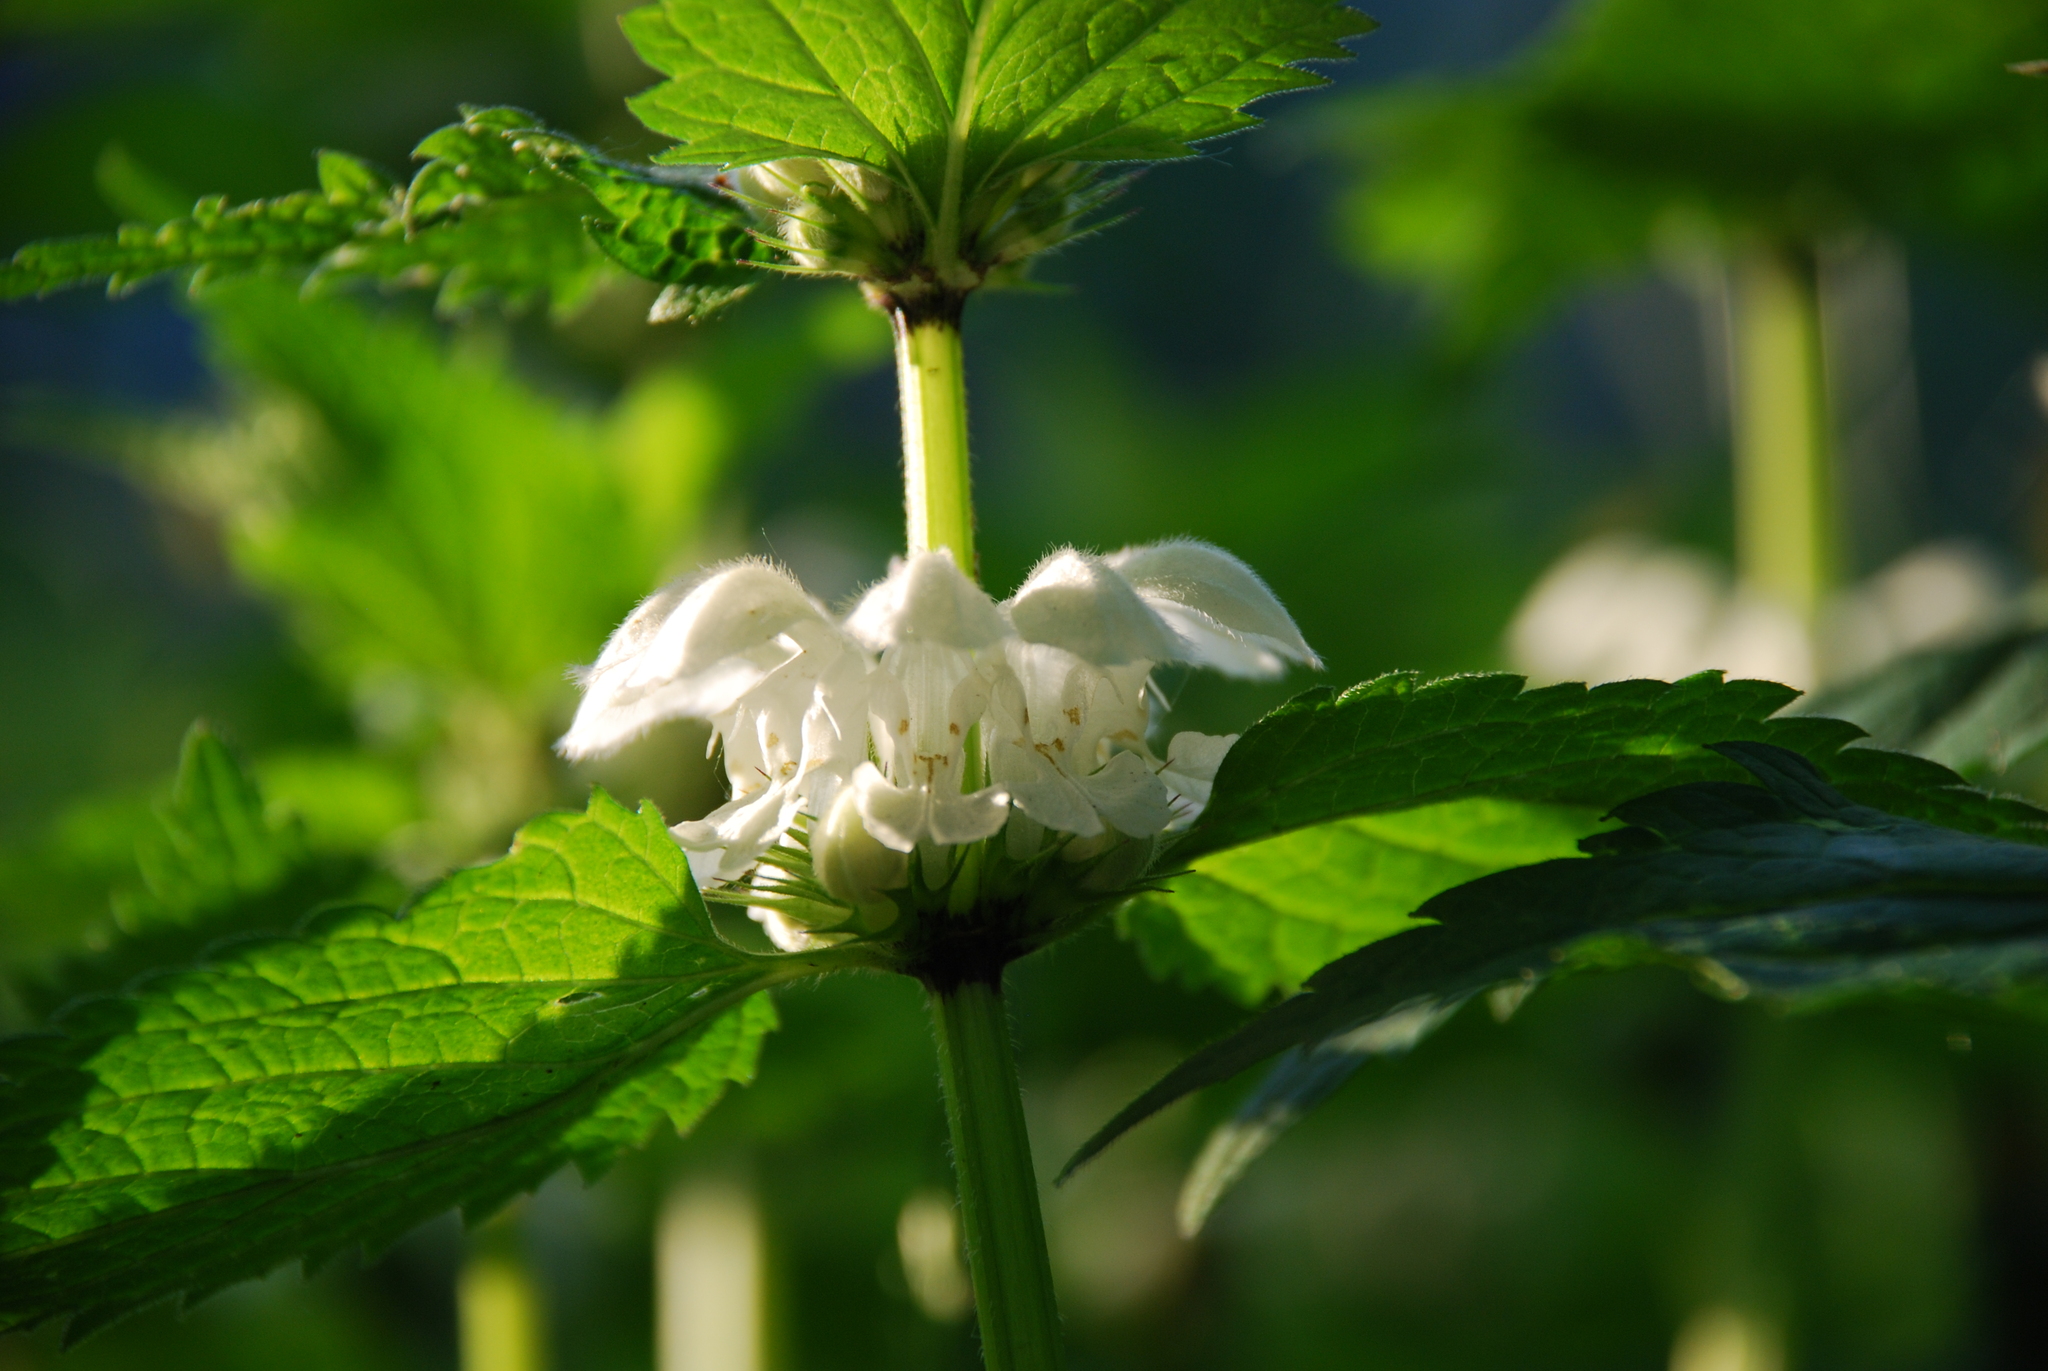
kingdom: Plantae
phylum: Tracheophyta
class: Magnoliopsida
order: Lamiales
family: Lamiaceae
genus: Lamium
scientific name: Lamium album
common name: White dead-nettle
